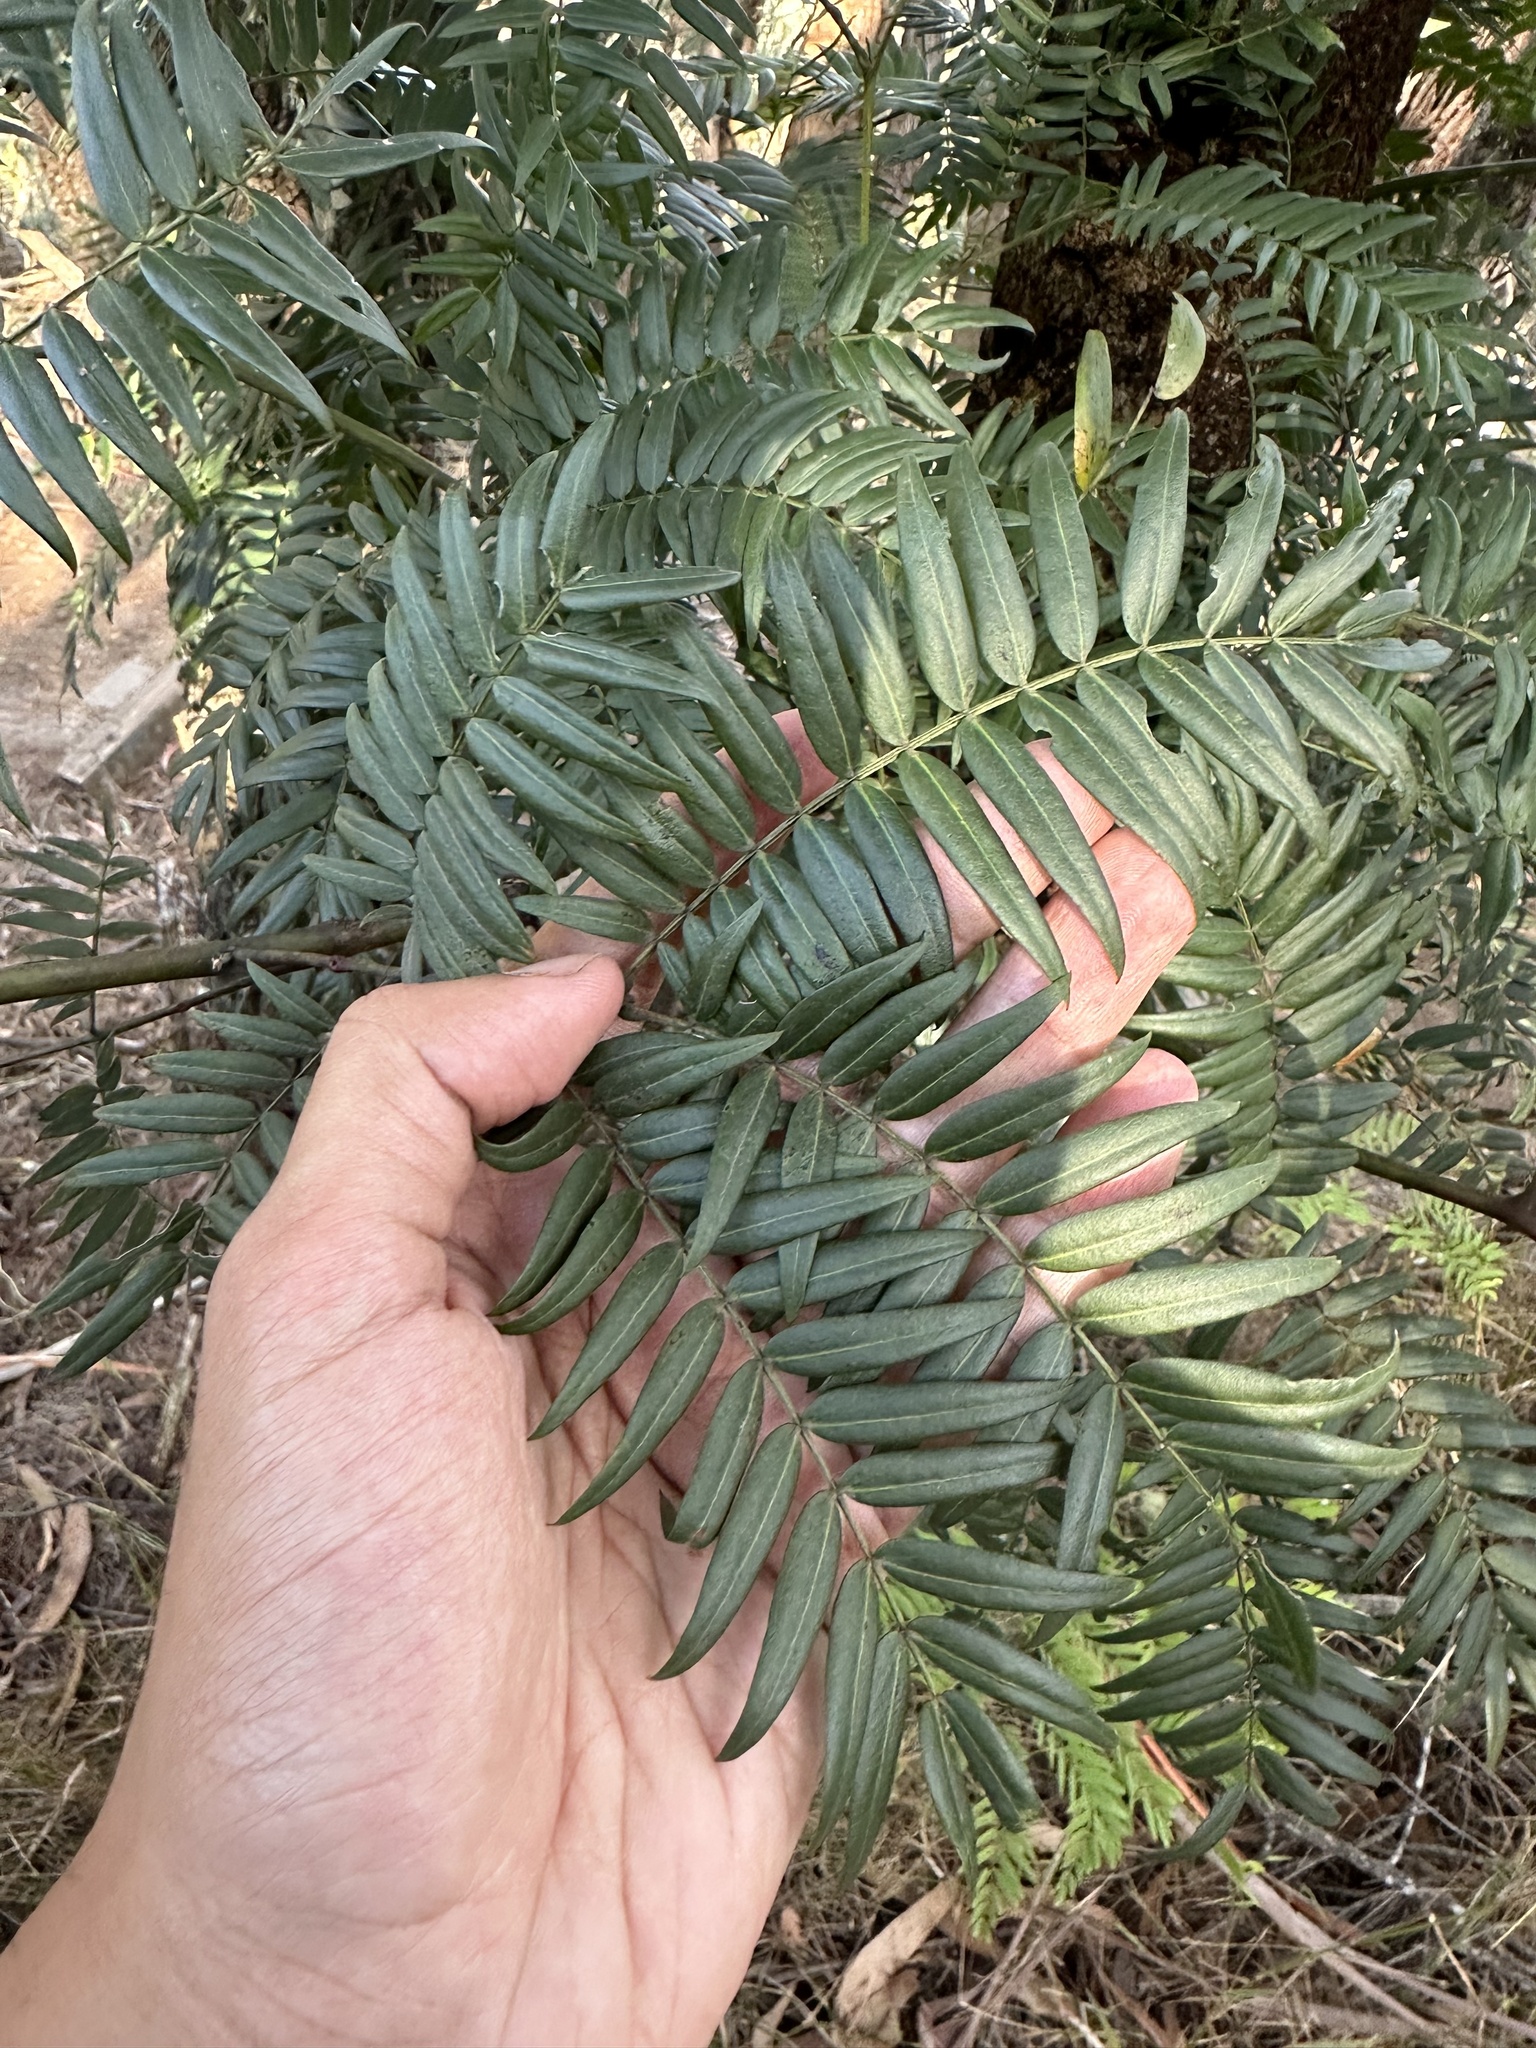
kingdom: Plantae
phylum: Tracheophyta
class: Magnoliopsida
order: Fabales
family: Fabaceae
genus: Acacia
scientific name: Acacia elata
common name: Cedar wattle
